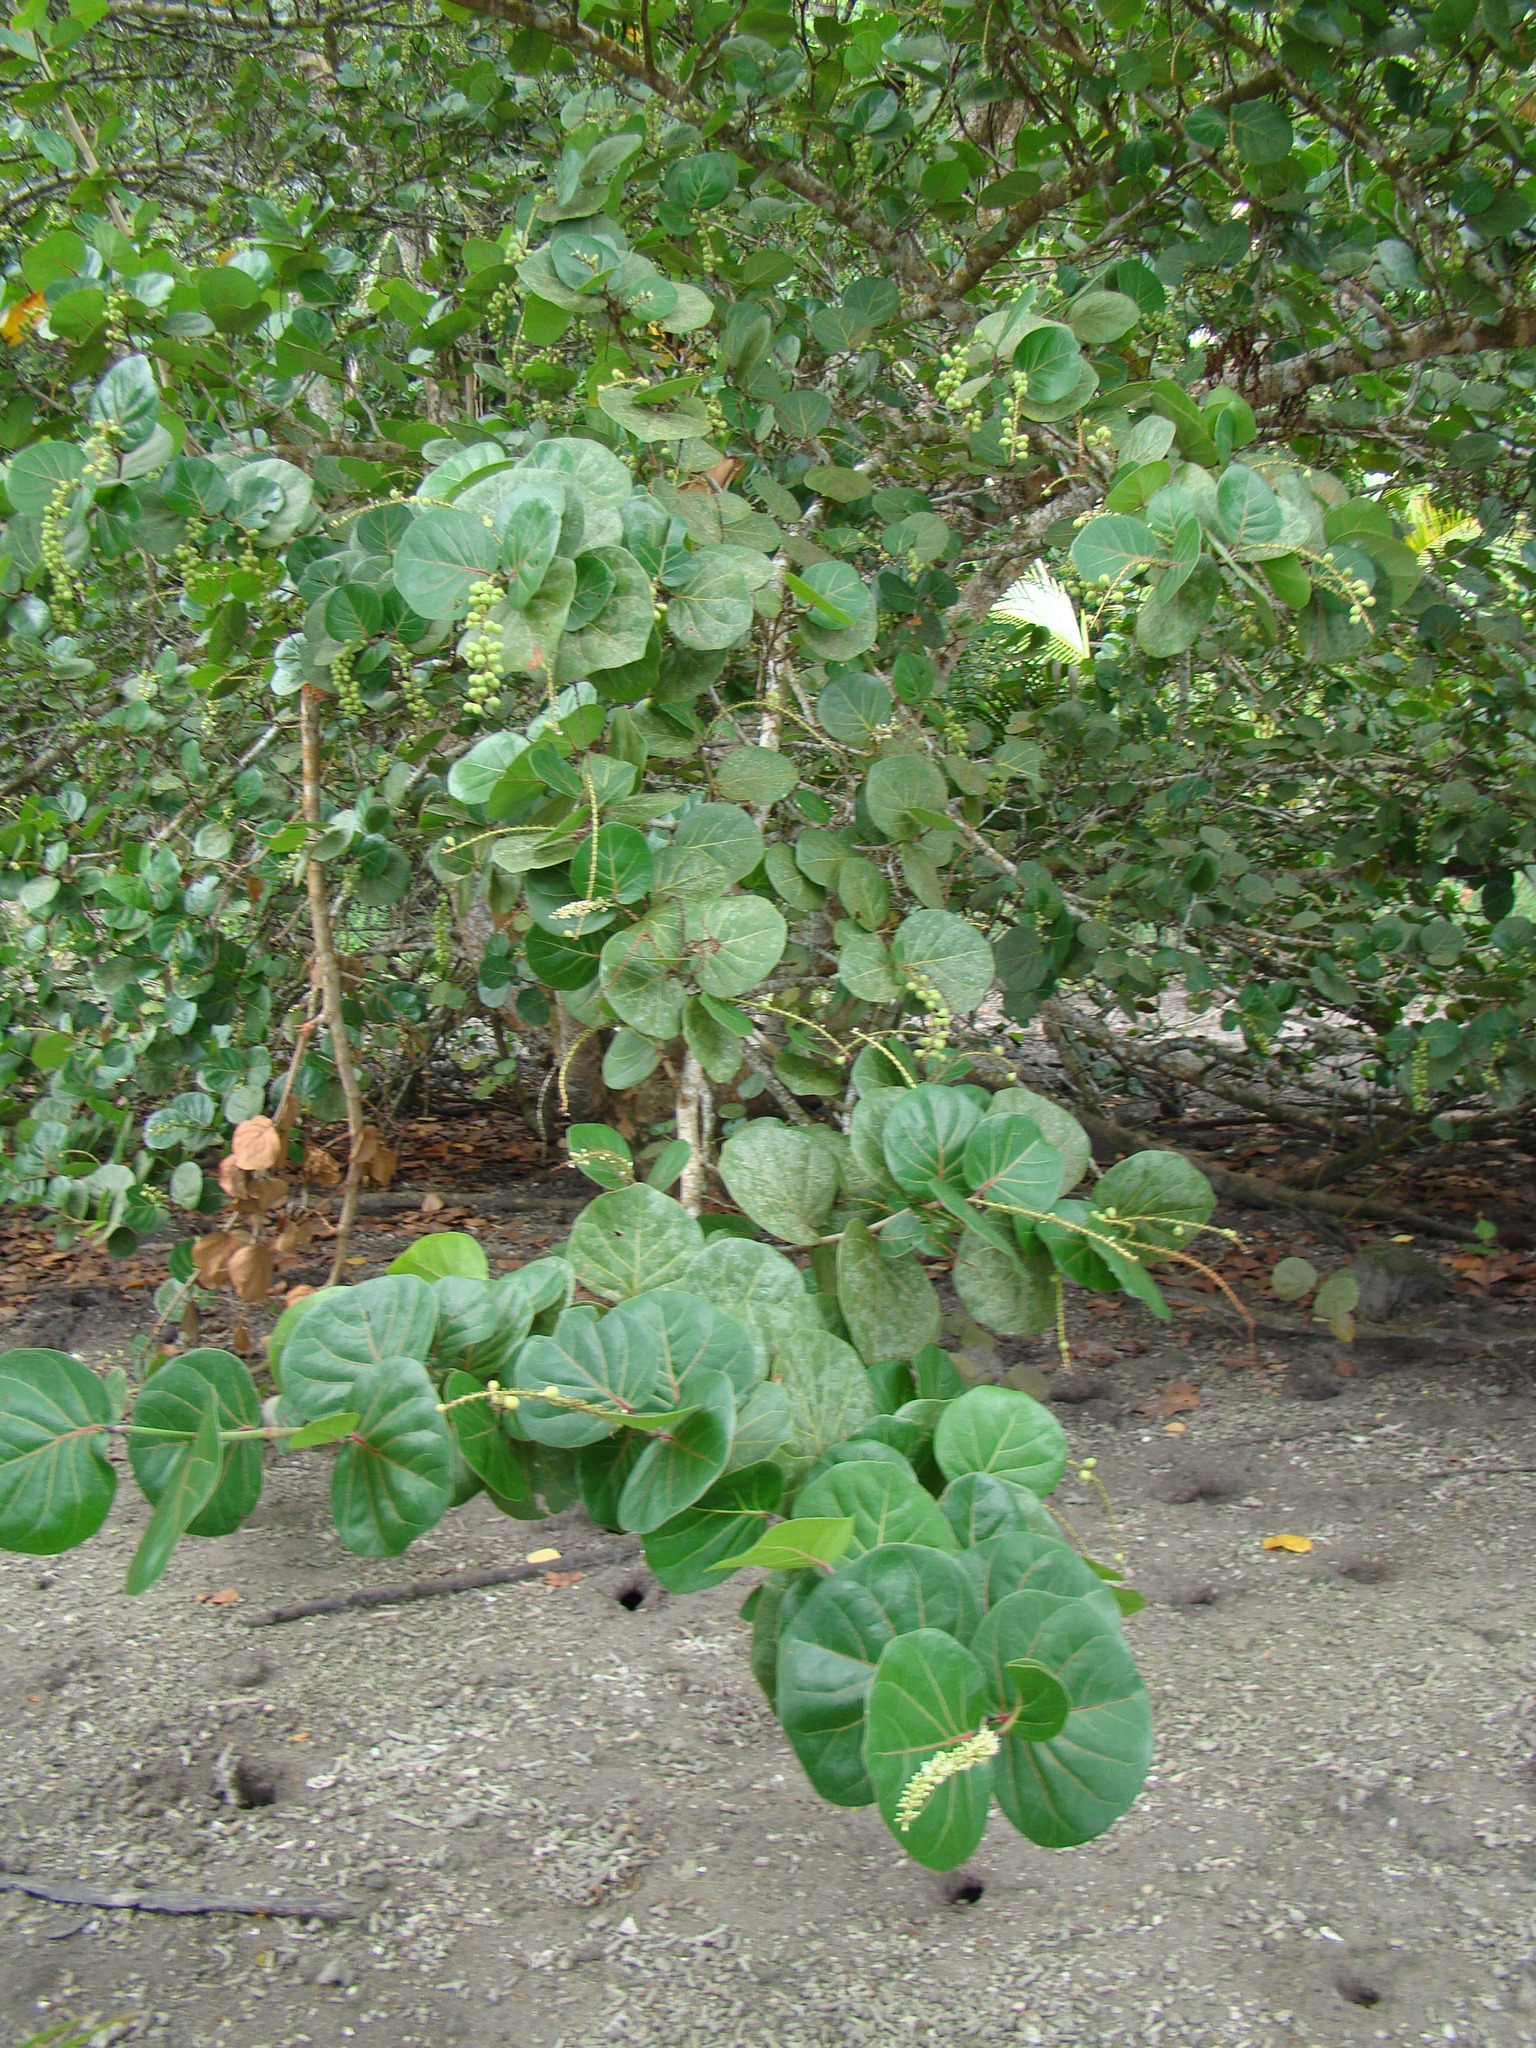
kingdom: Plantae
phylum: Tracheophyta
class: Magnoliopsida
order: Caryophyllales
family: Polygonaceae
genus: Coccoloba
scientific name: Coccoloba uvifera
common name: Seagrape
